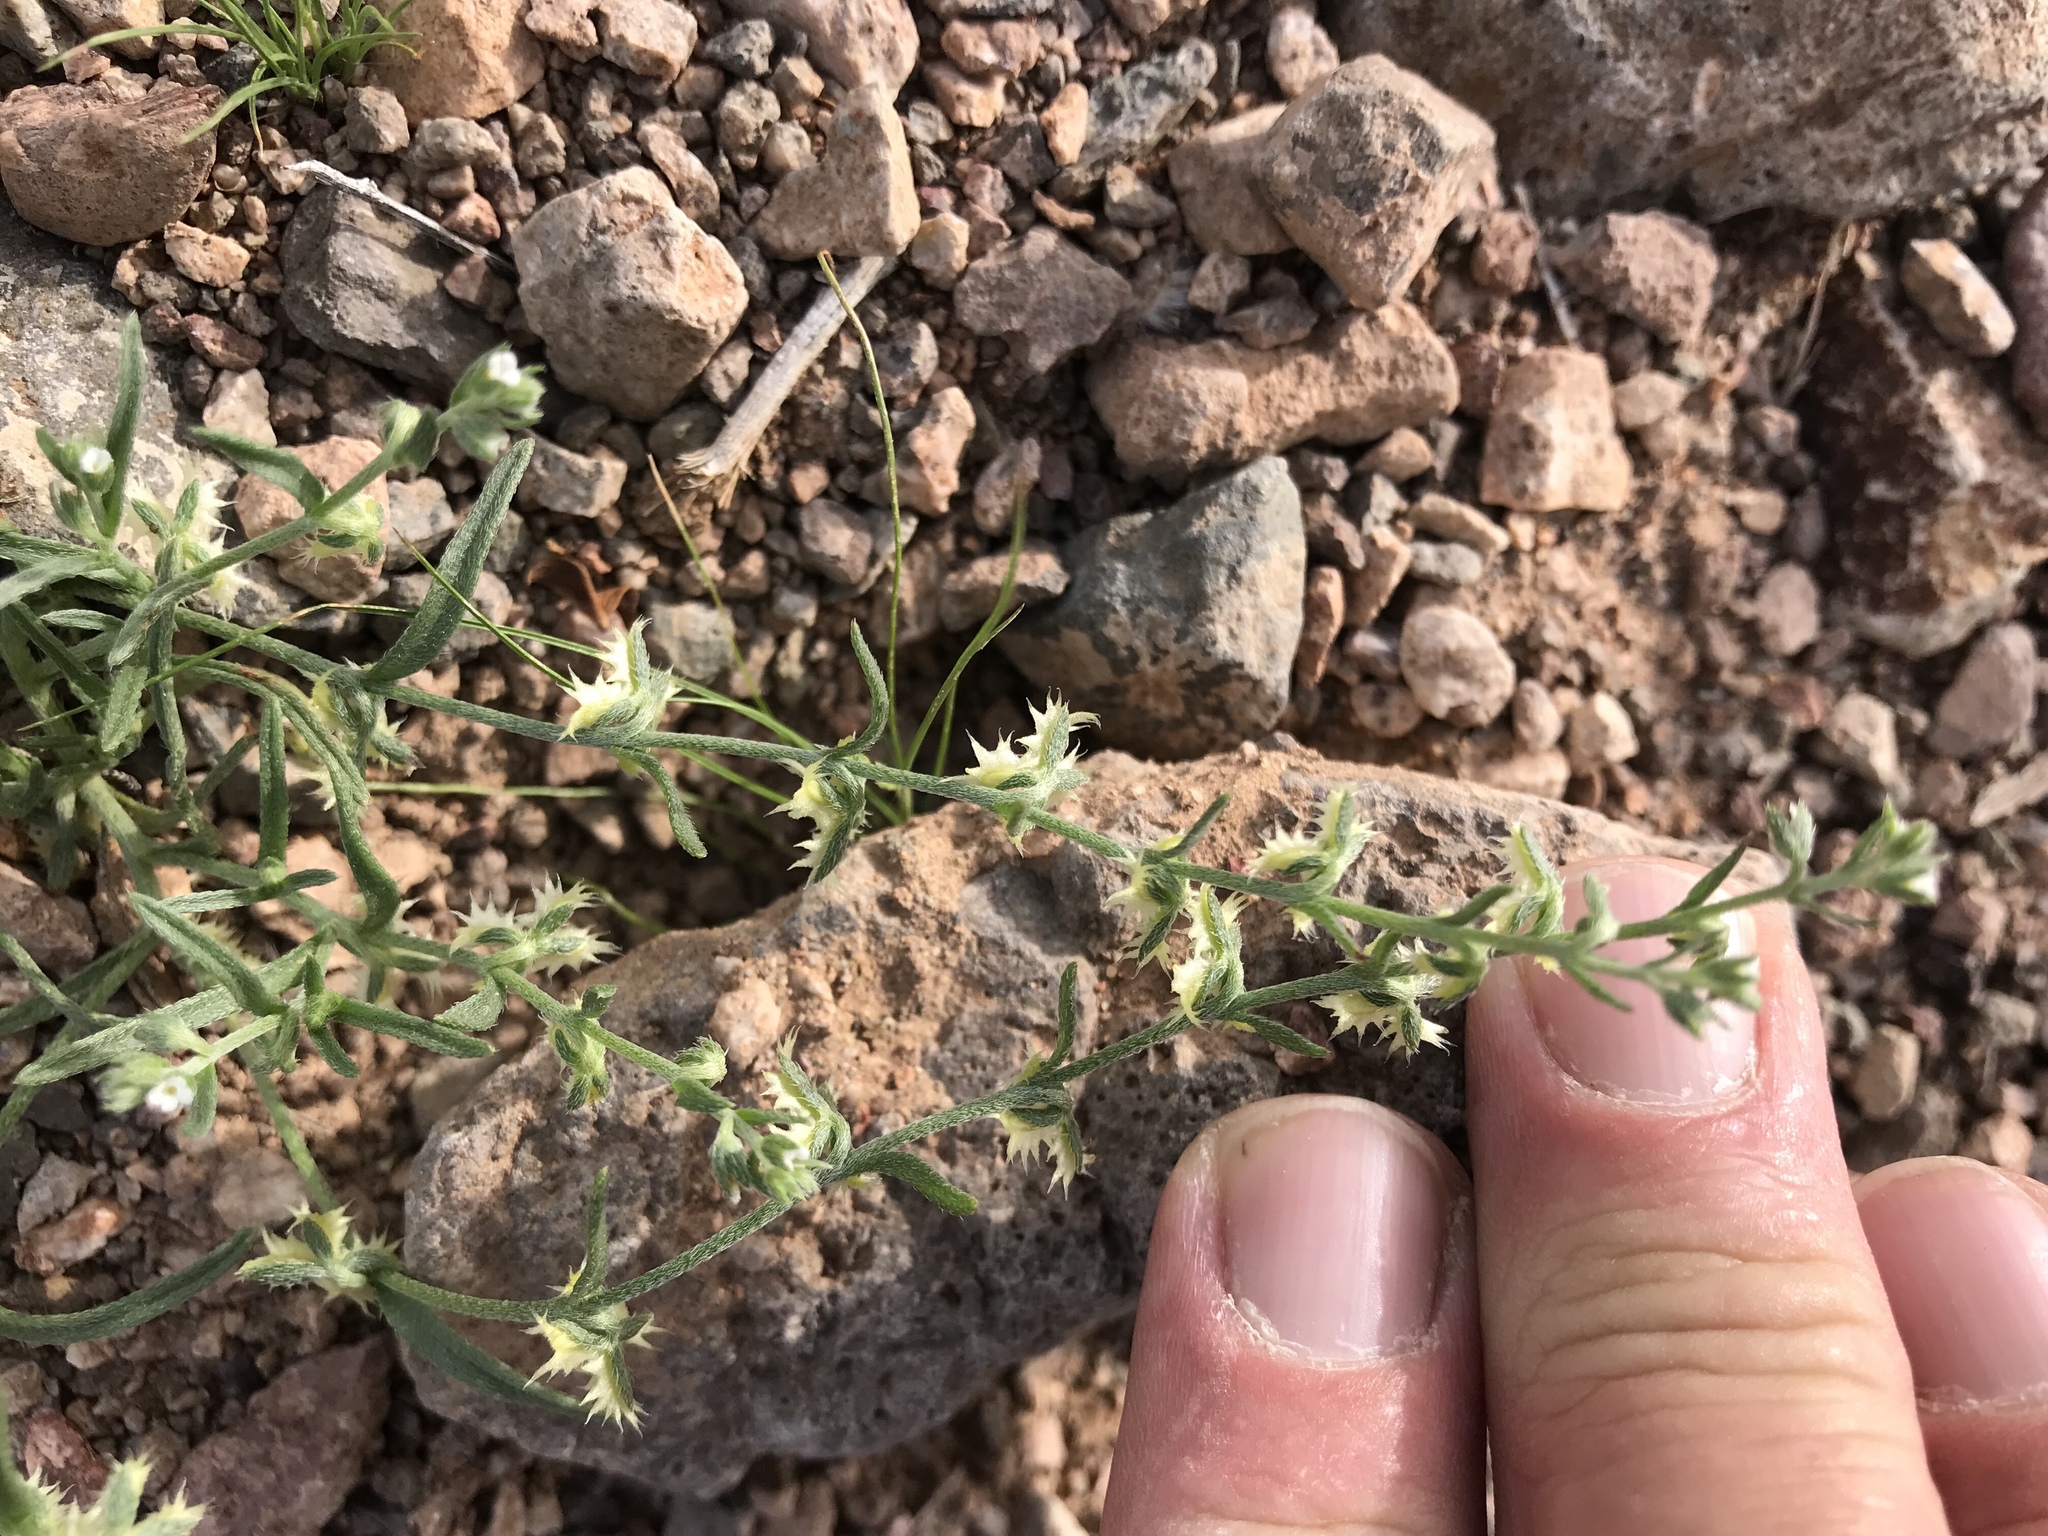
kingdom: Plantae
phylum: Tracheophyta
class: Magnoliopsida
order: Boraginales
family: Boraginaceae
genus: Pectocarya
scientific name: Pectocarya platycarpa
